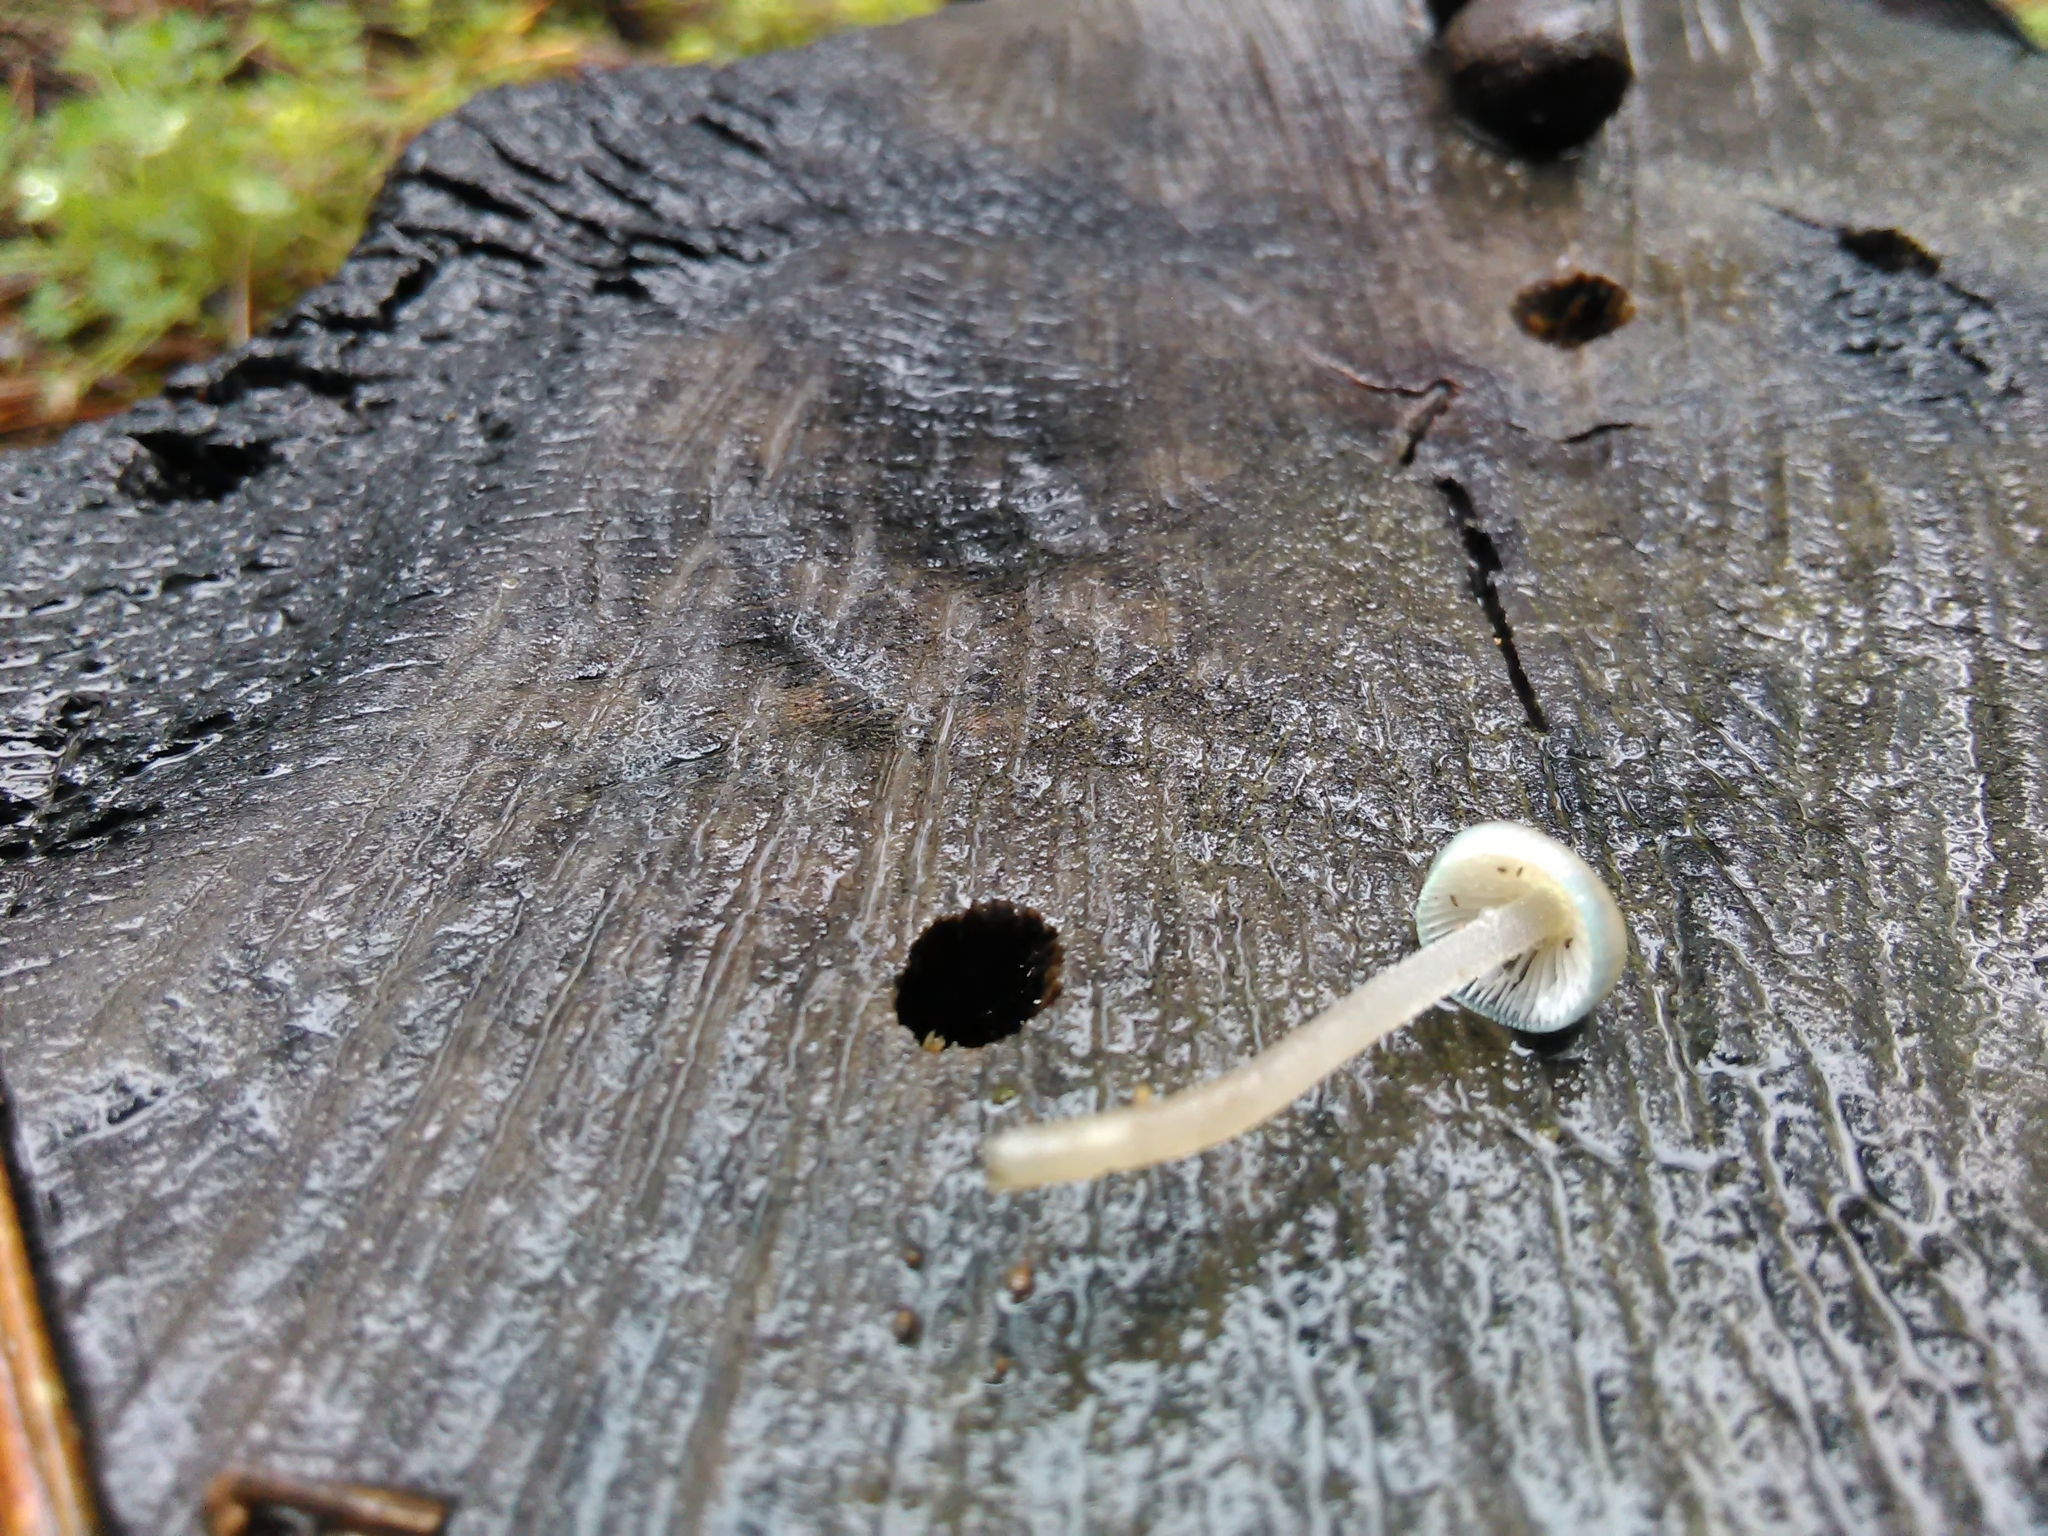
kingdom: Fungi
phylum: Basidiomycota
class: Agaricomycetes
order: Agaricales
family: Mycenaceae
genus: Mycena
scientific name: Mycena amicta
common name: Coldfoot bonnet
